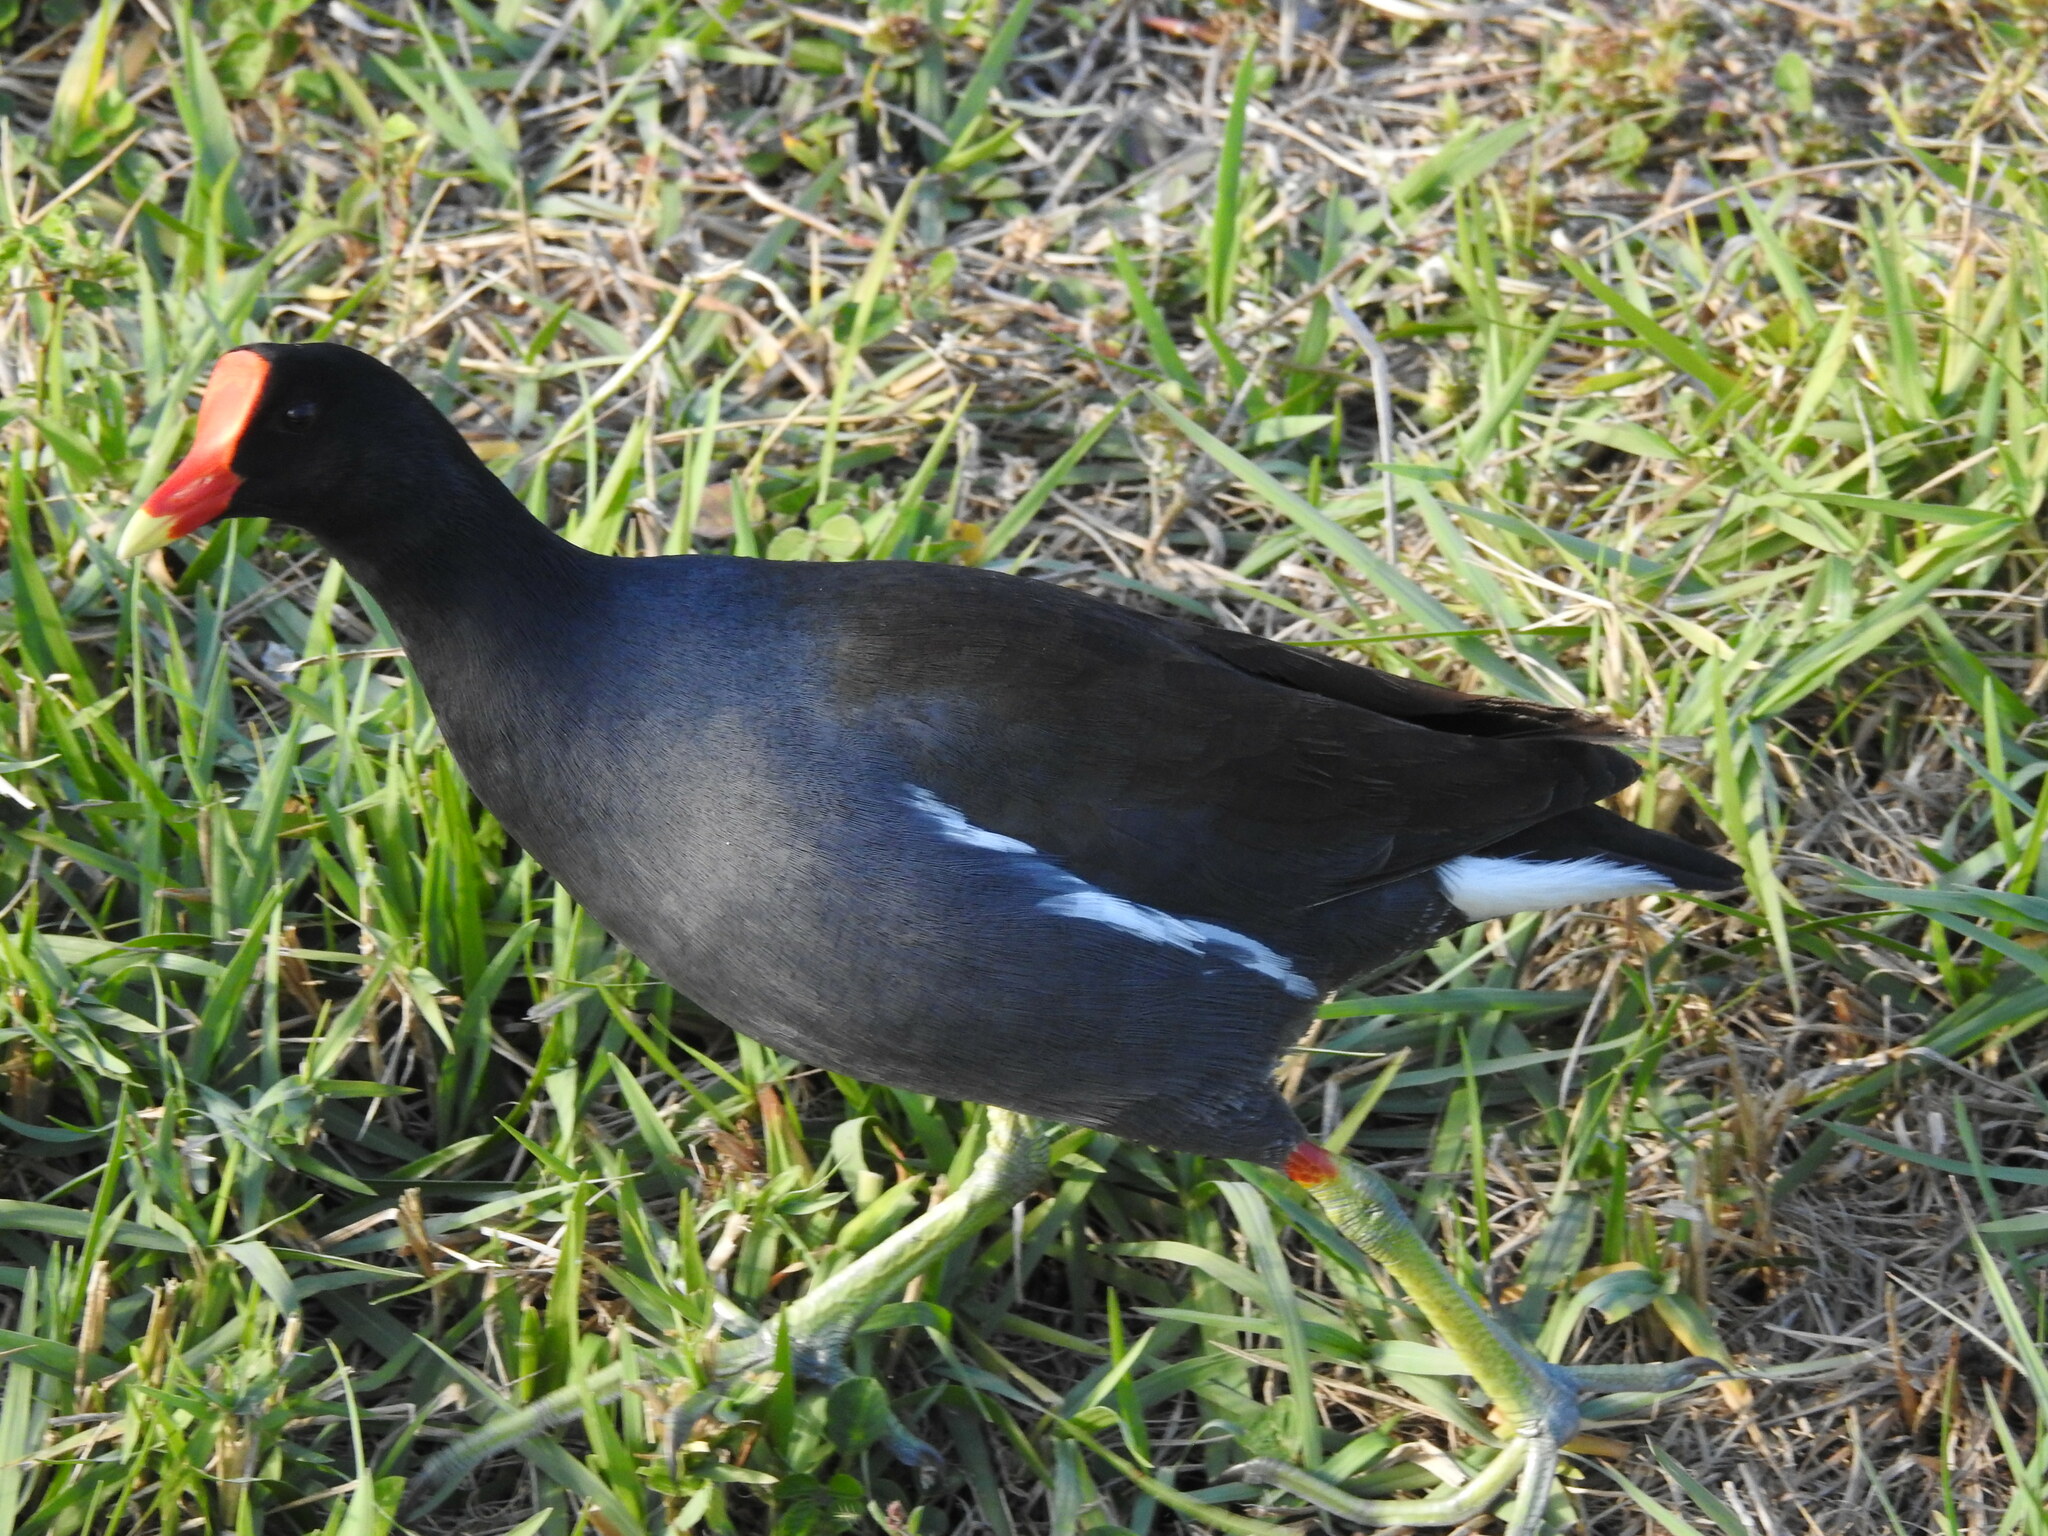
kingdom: Animalia
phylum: Chordata
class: Aves
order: Gruiformes
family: Rallidae
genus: Gallinula
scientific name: Gallinula chloropus
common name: Common moorhen
